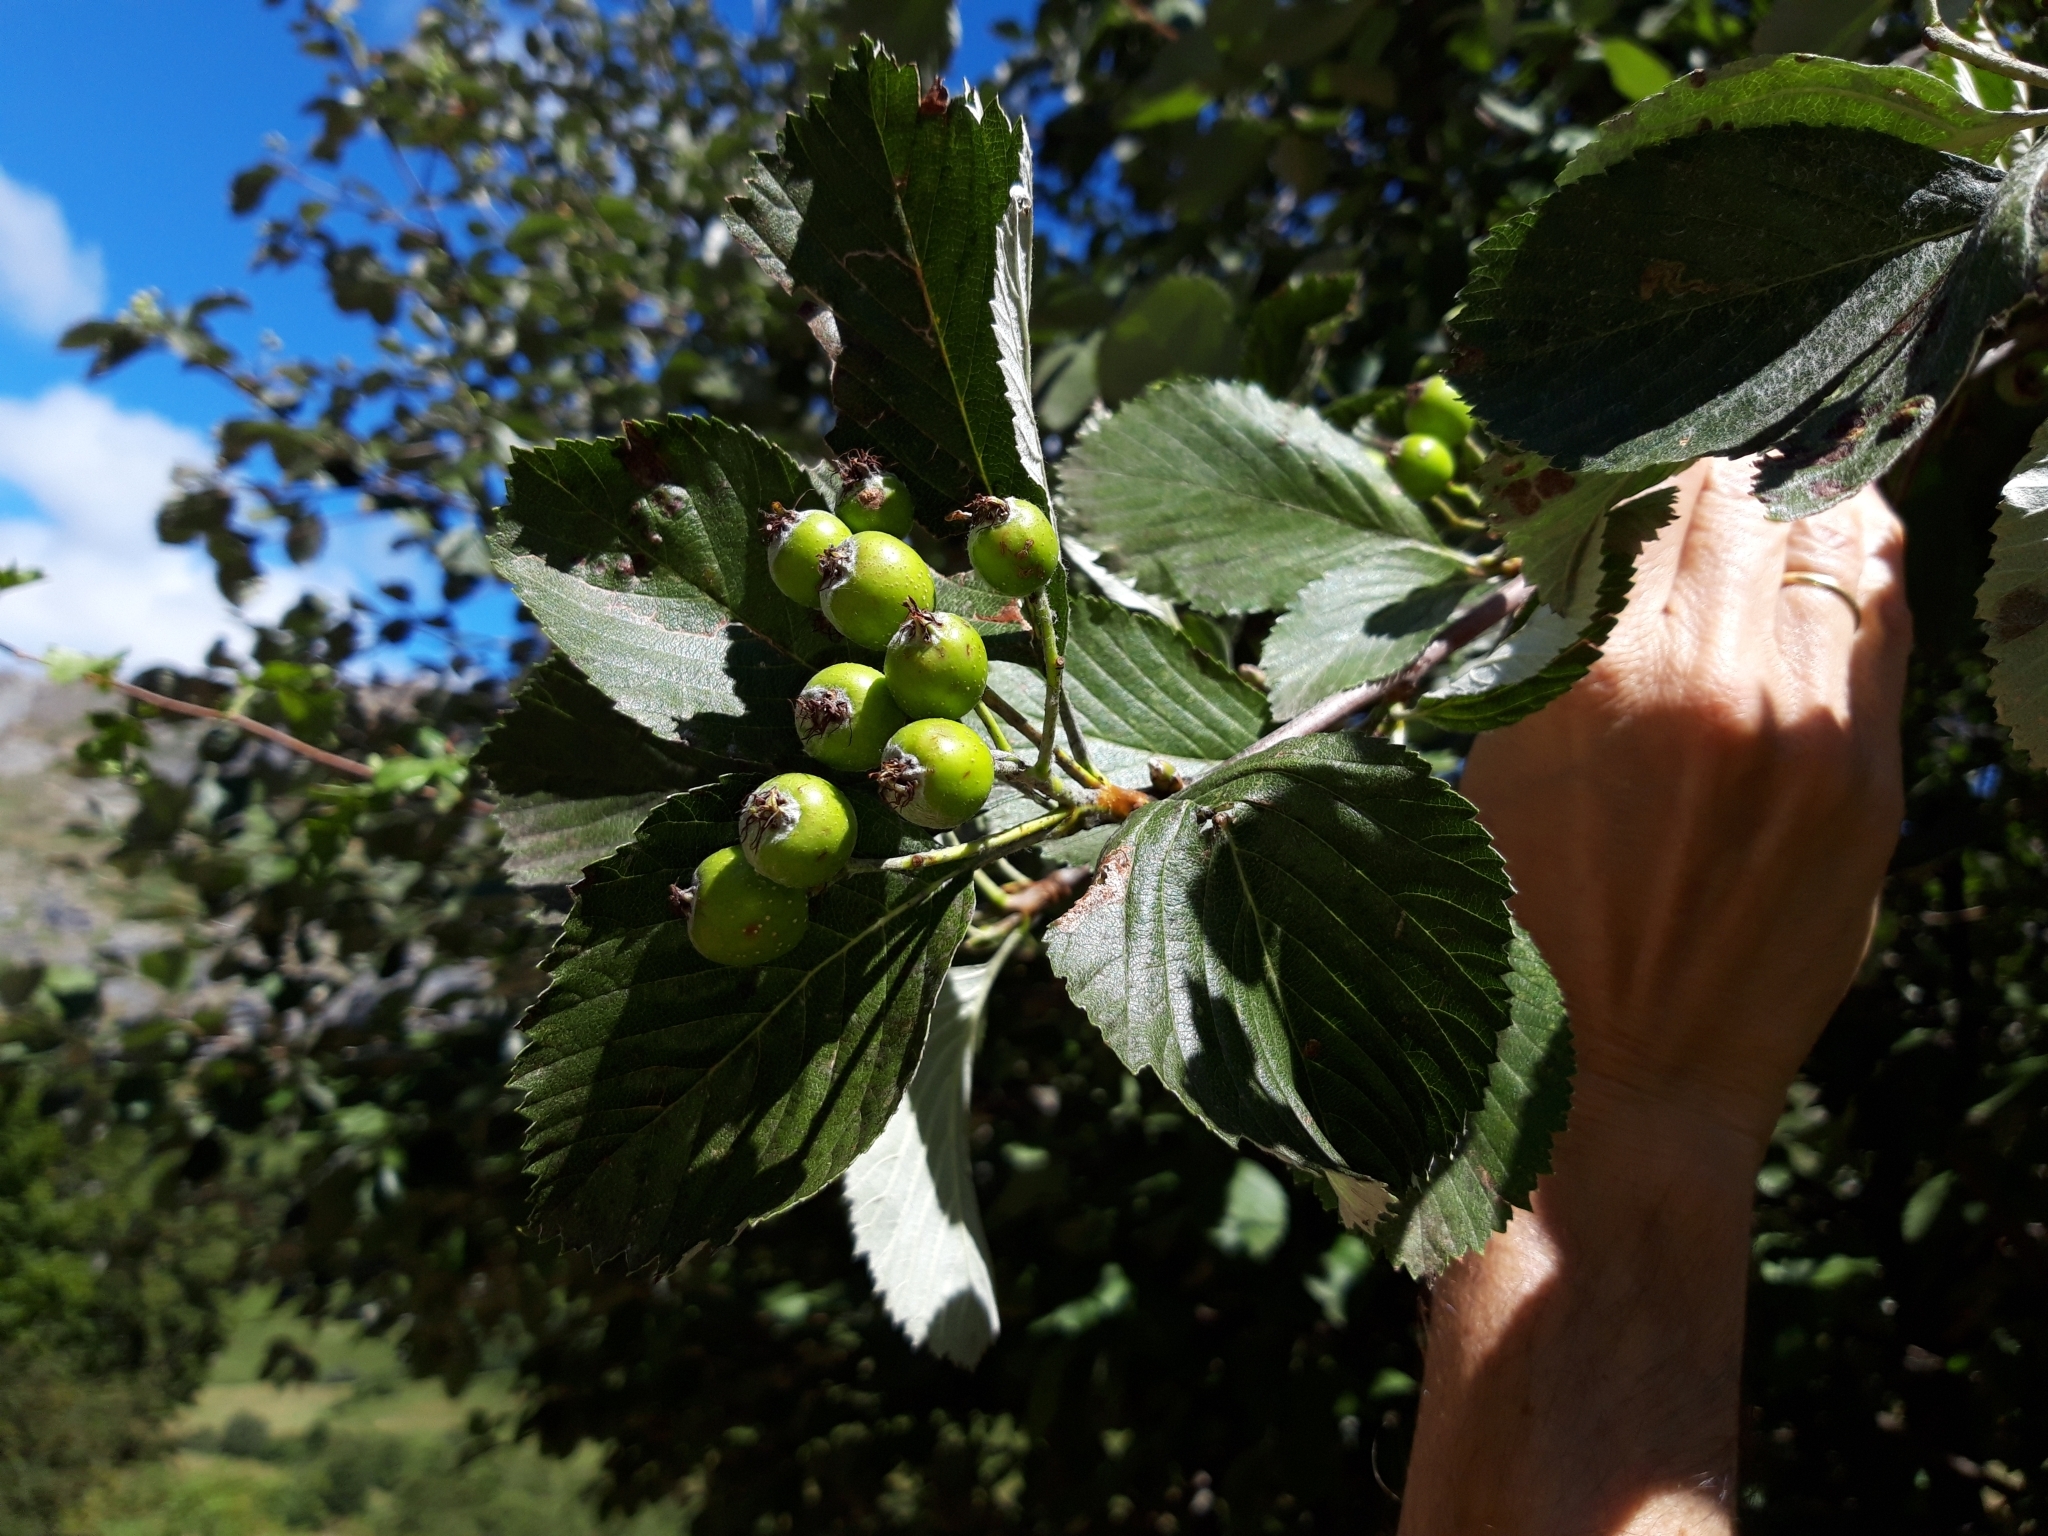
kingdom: Plantae
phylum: Tracheophyta
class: Magnoliopsida
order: Rosales
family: Rosaceae
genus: Aria
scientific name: Aria edulis
